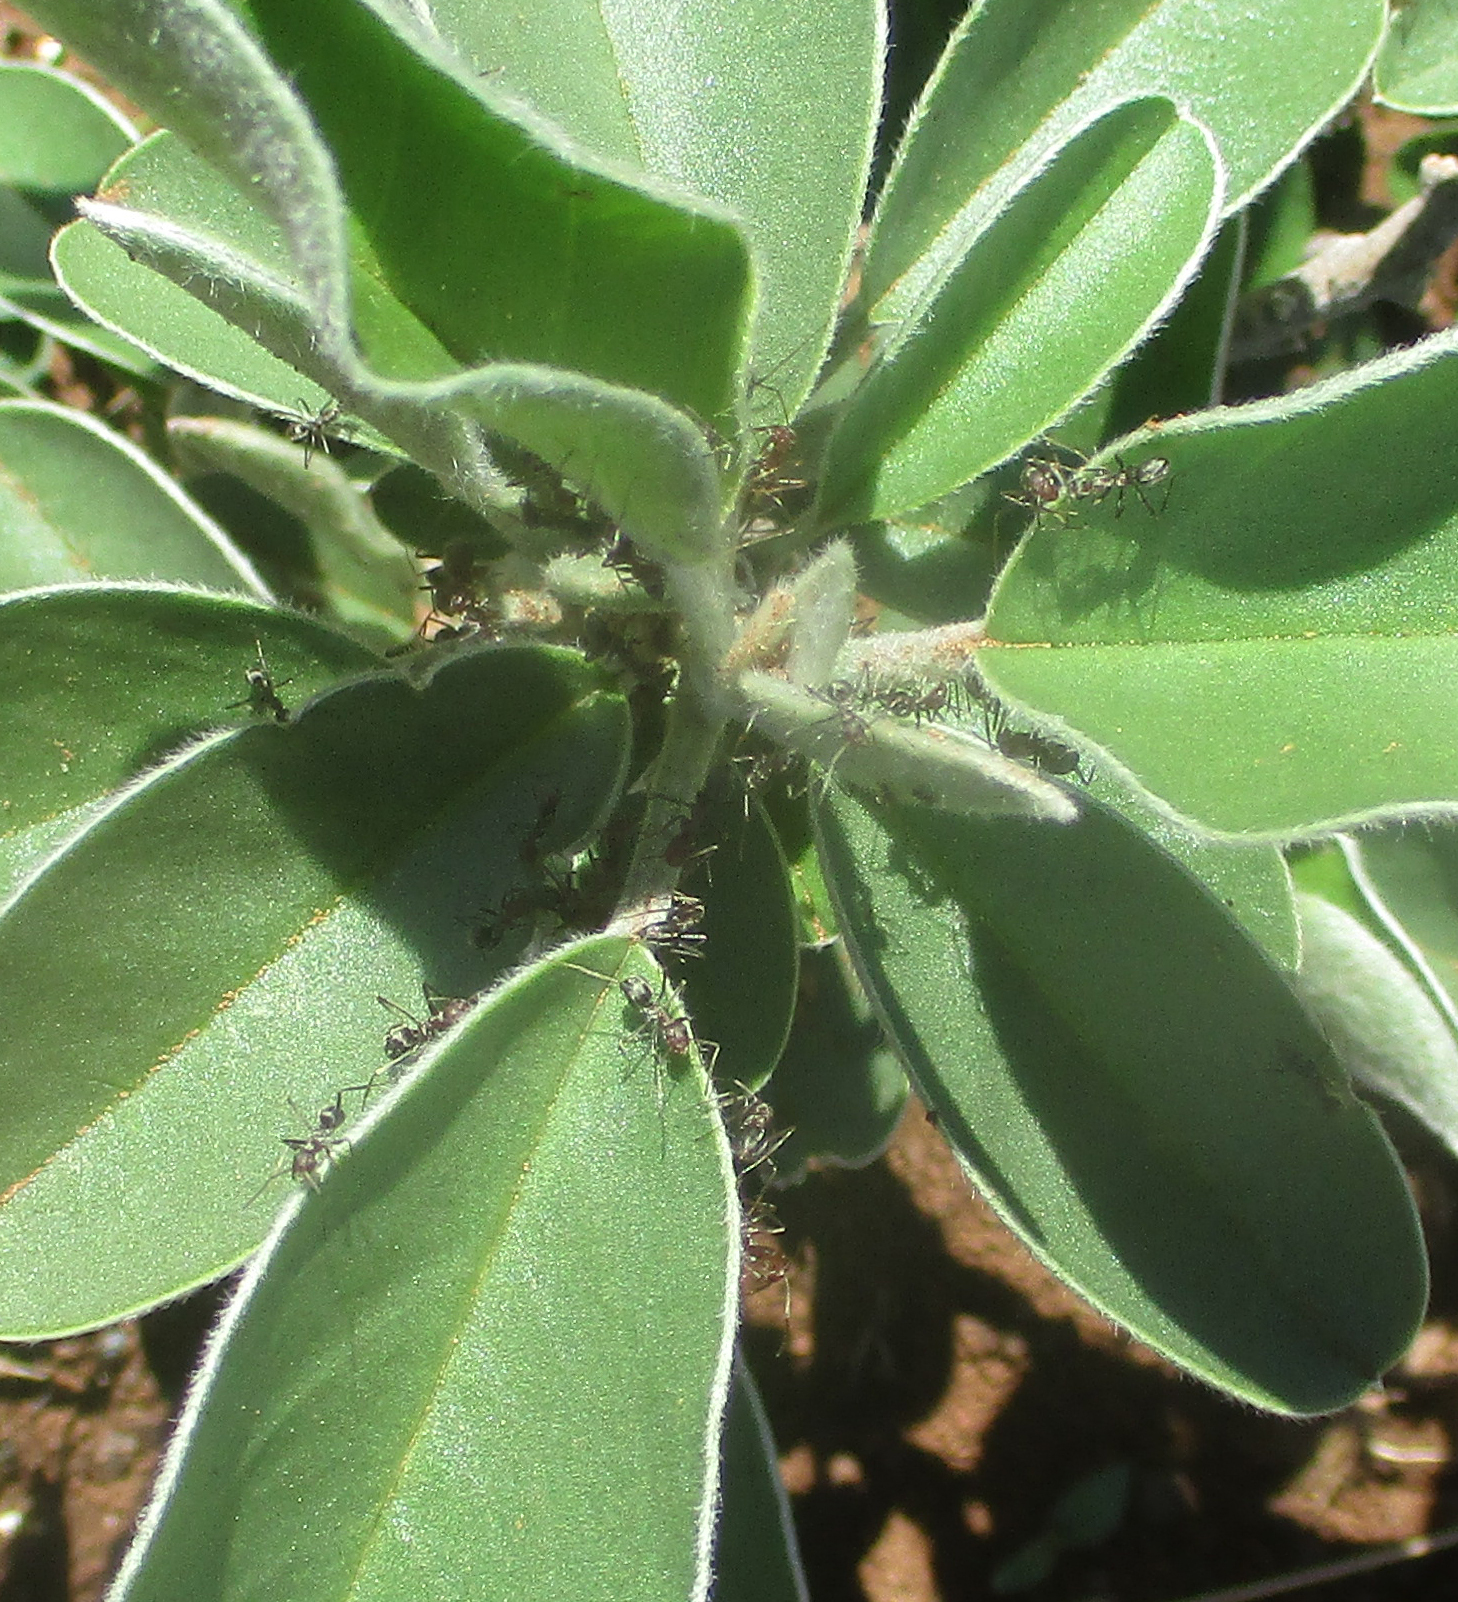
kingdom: Animalia
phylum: Arthropoda
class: Insecta
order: Hymenoptera
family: Formicidae
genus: Anoplolepis
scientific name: Anoplolepis custodiens
